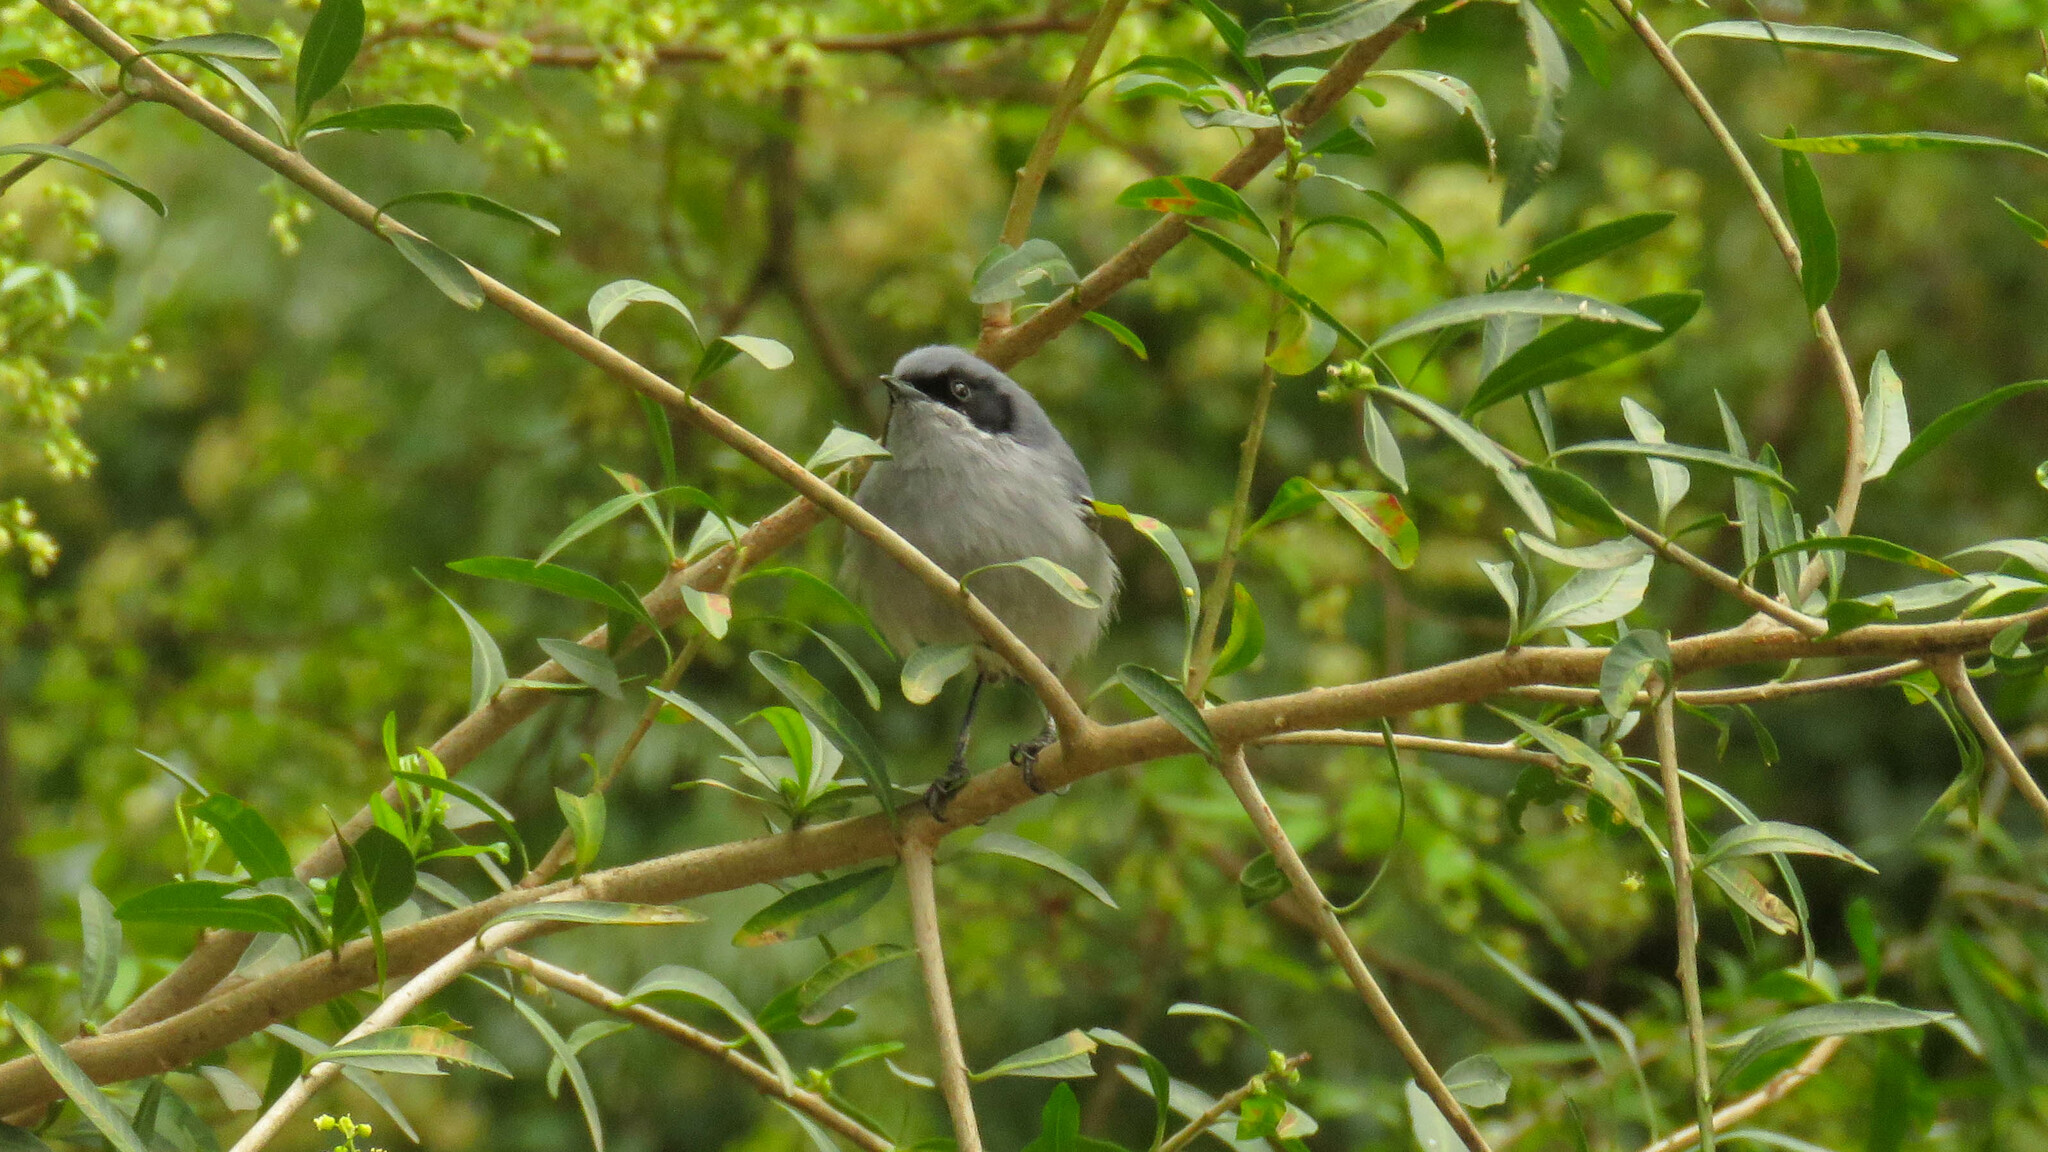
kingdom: Animalia
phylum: Chordata
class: Aves
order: Passeriformes
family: Polioptilidae
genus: Polioptila
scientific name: Polioptila dumicola
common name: Masked gnatcatcher
